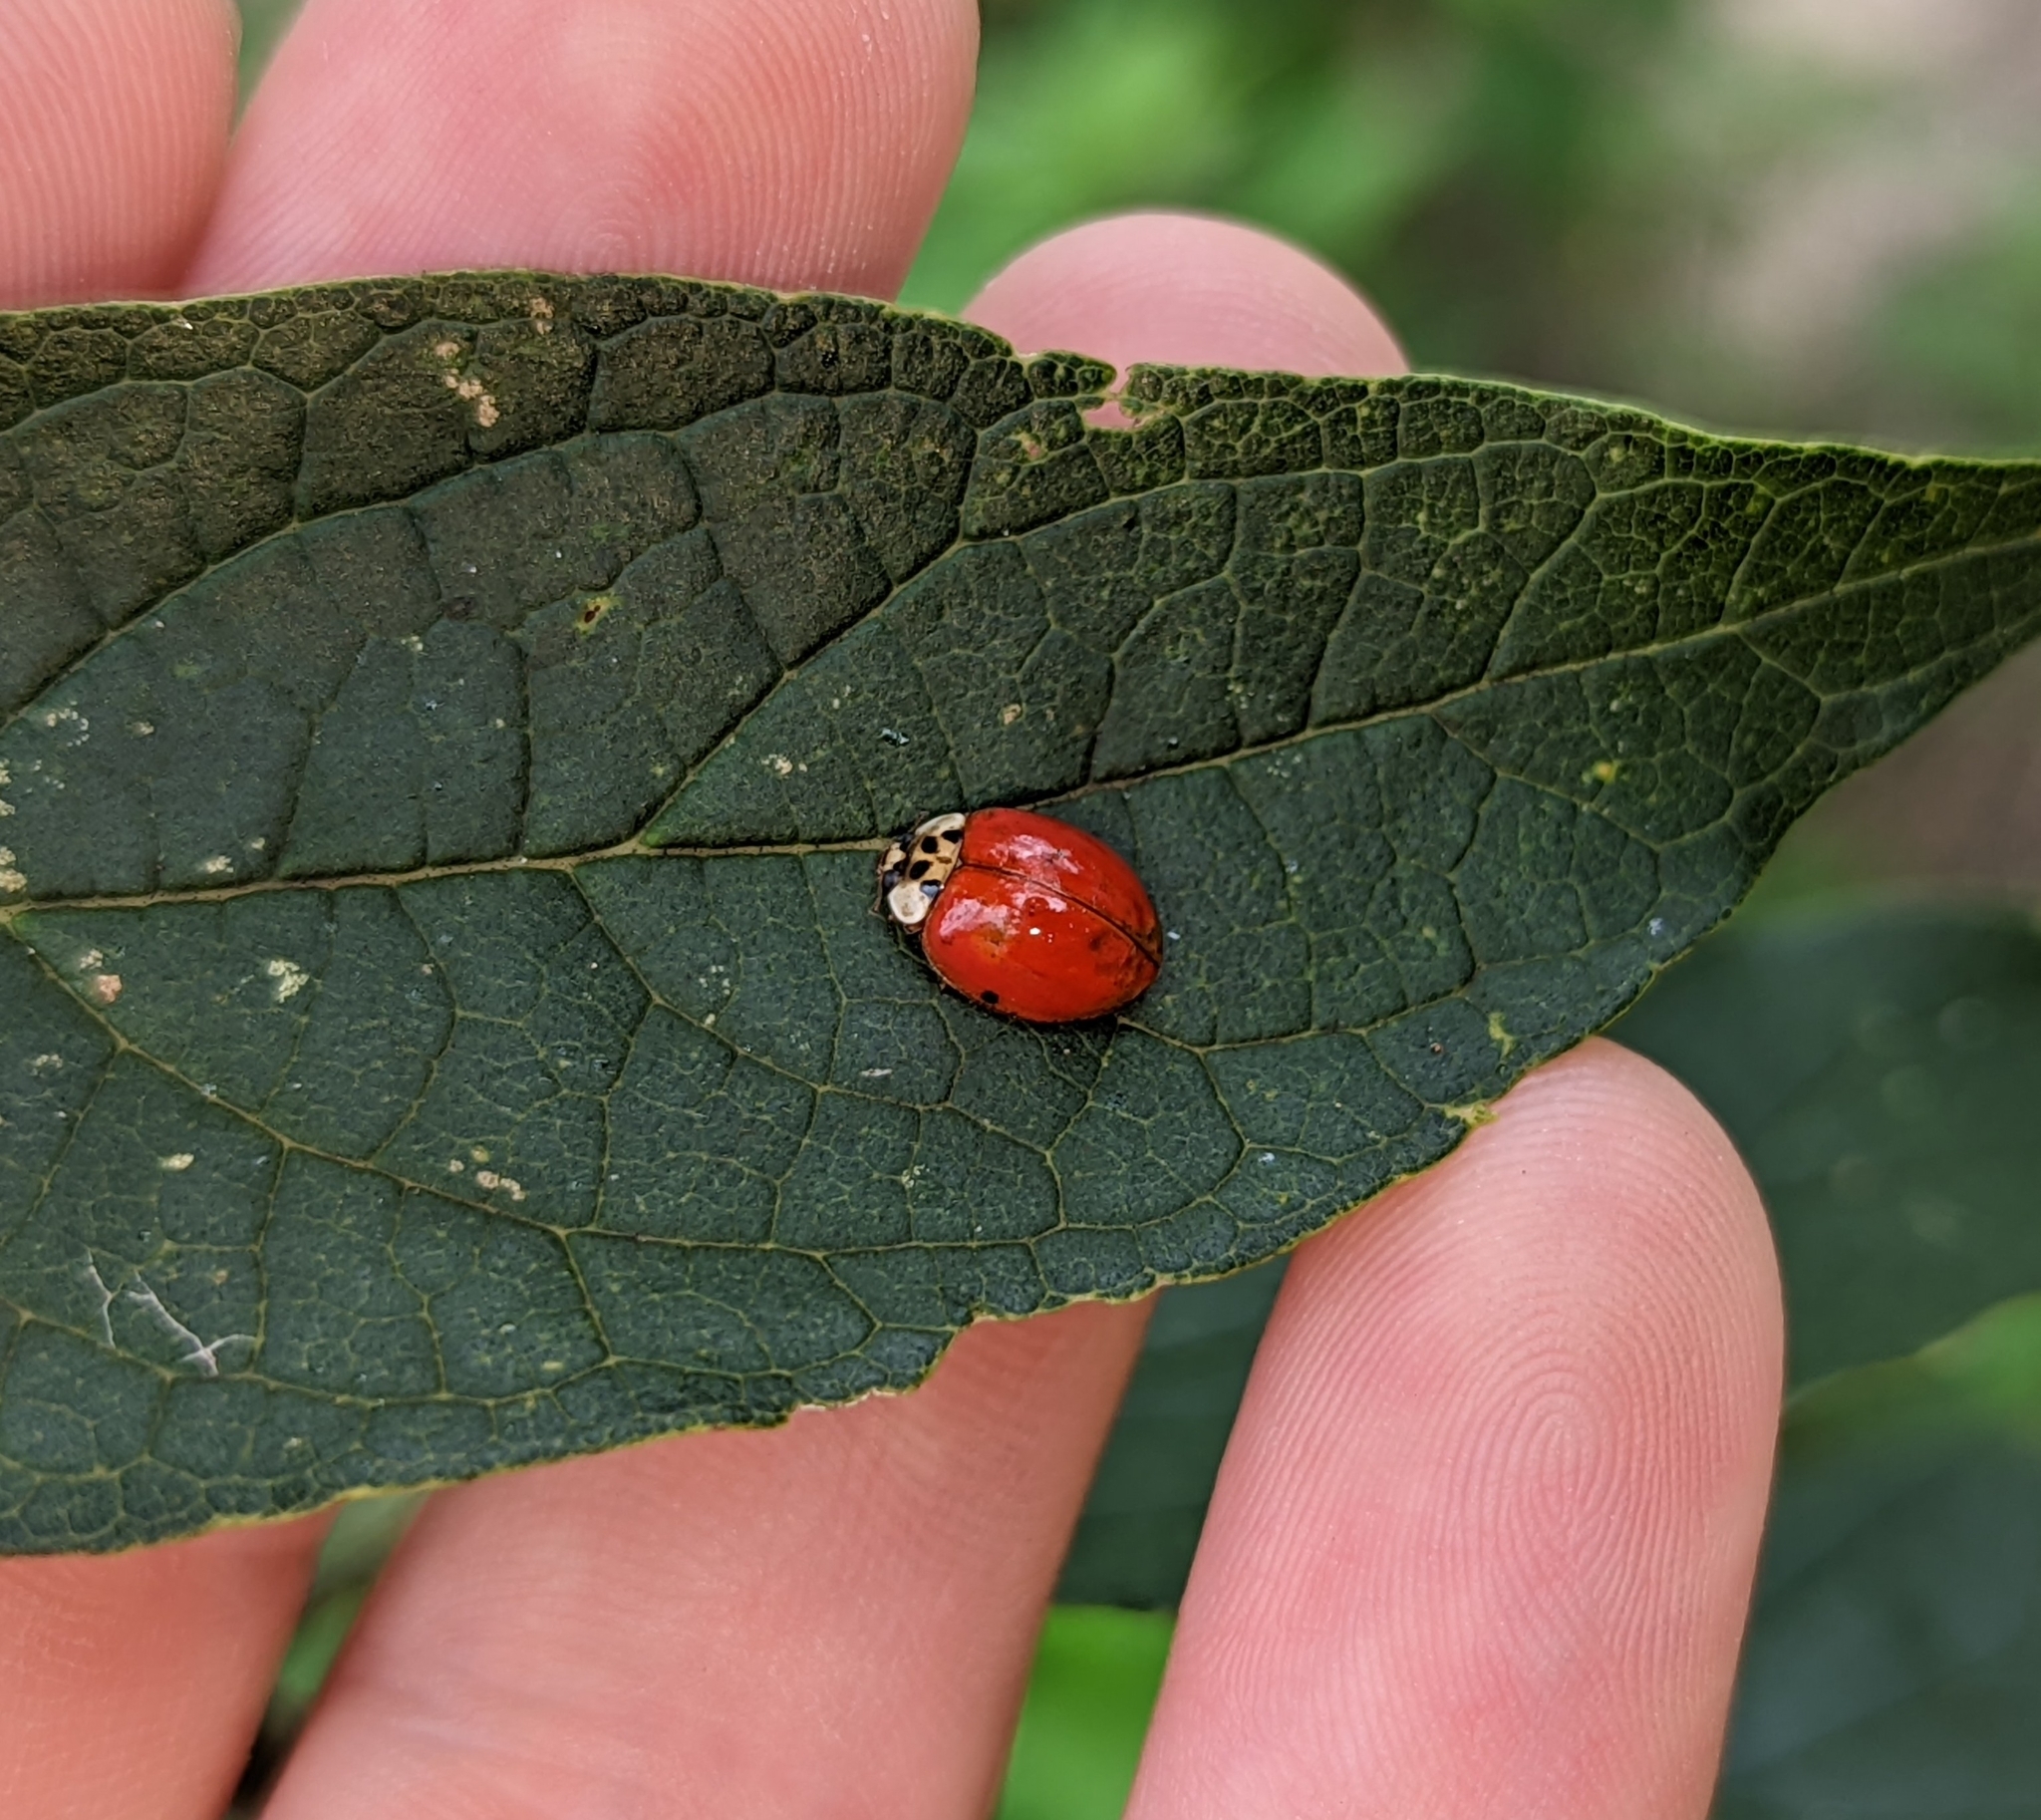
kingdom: Animalia
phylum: Arthropoda
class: Insecta
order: Coleoptera
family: Coccinellidae
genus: Harmonia
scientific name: Harmonia axyridis
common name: Harlequin ladybird
